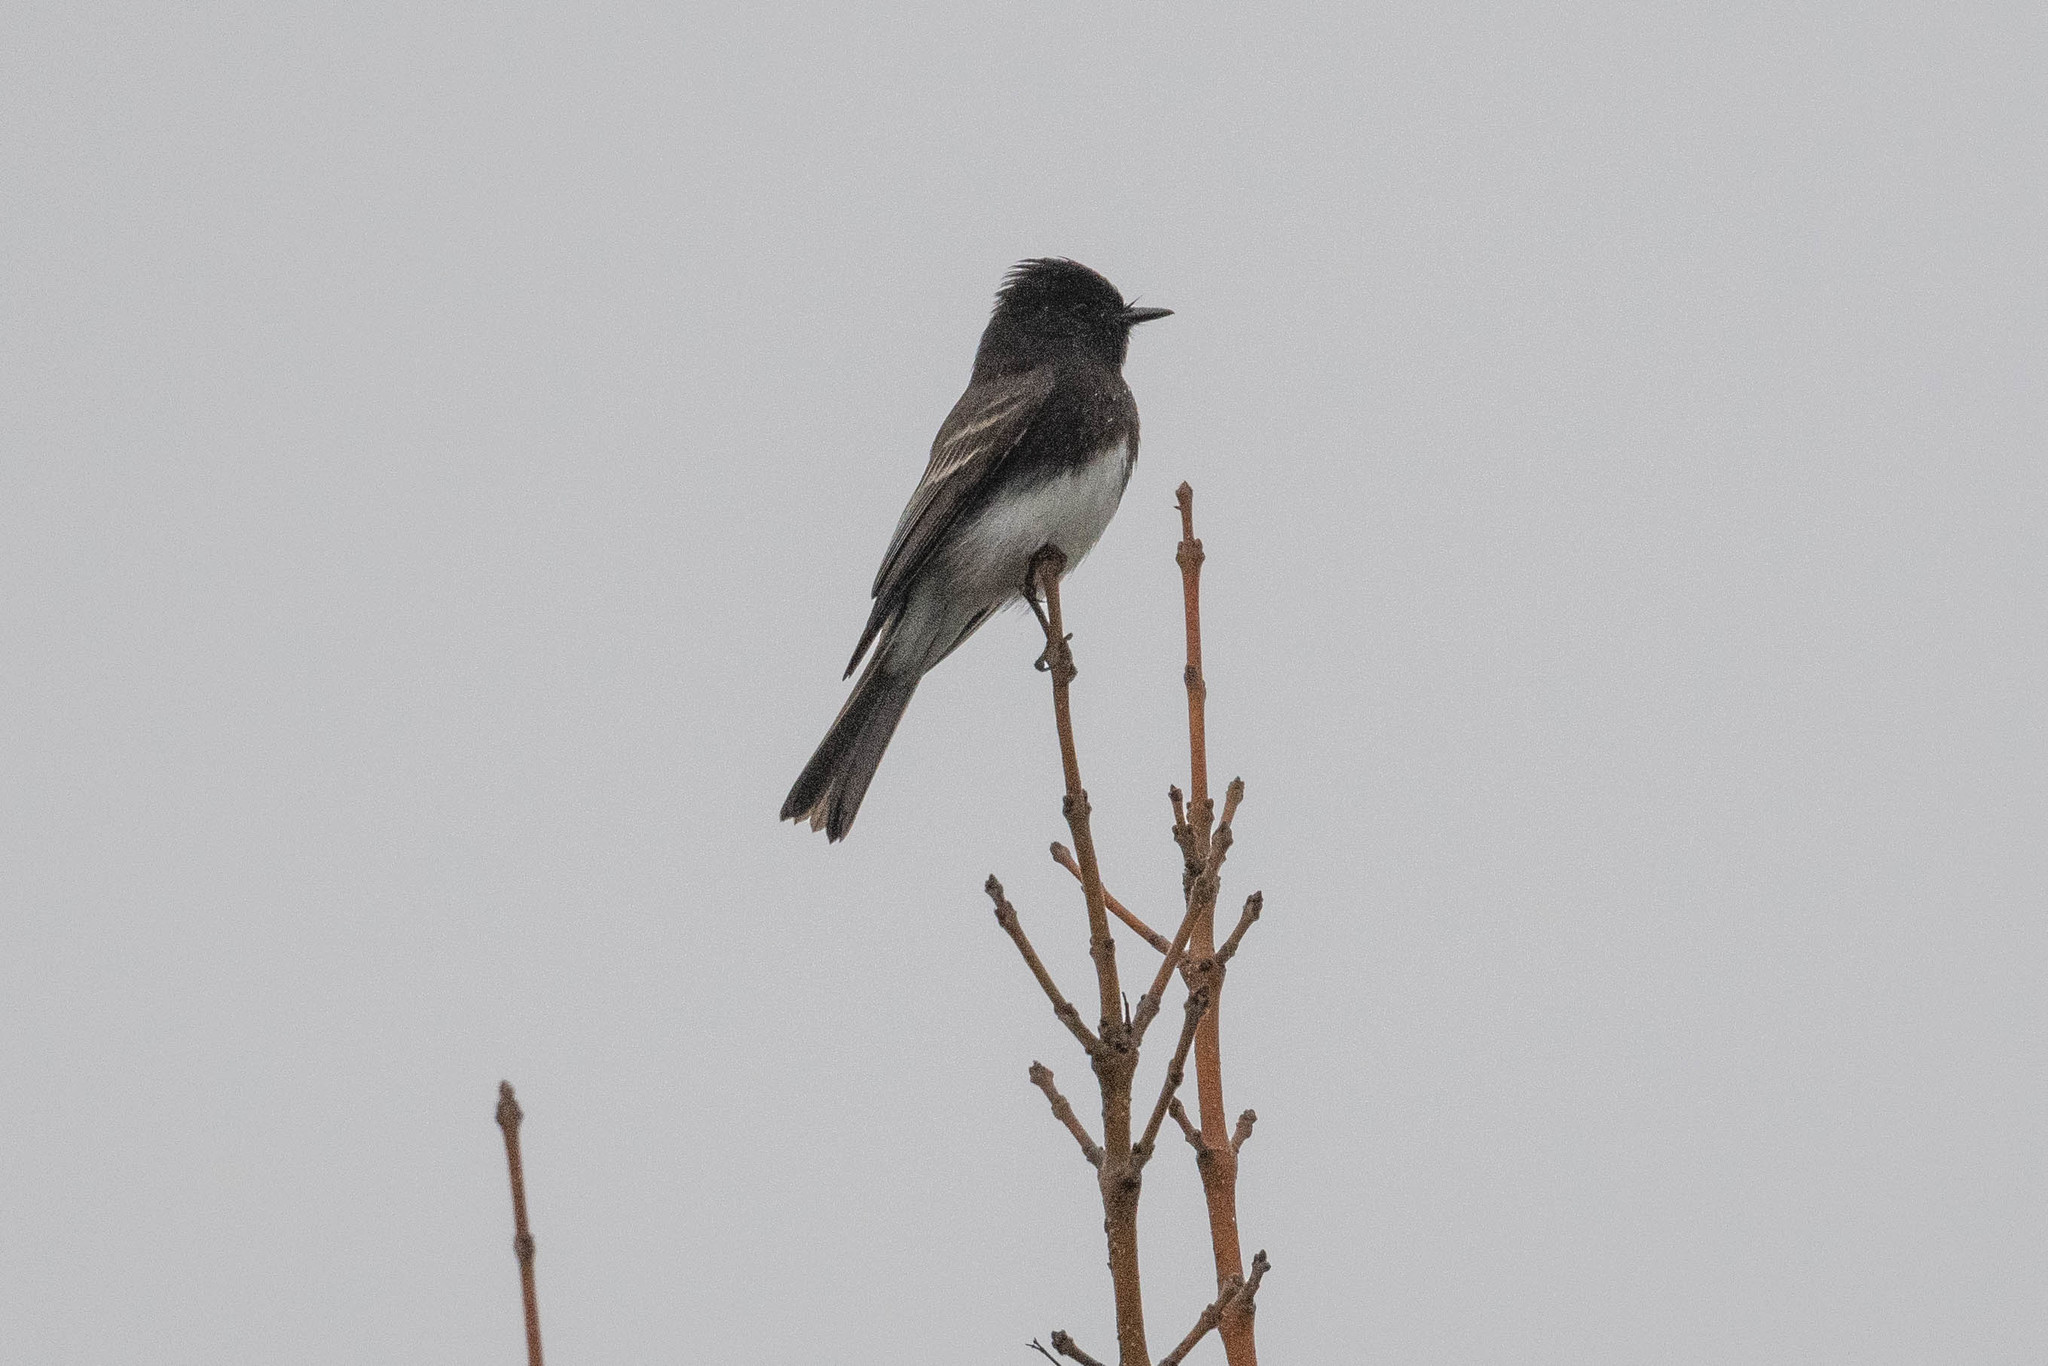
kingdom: Animalia
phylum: Chordata
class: Aves
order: Passeriformes
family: Tyrannidae
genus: Sayornis
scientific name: Sayornis nigricans
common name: Black phoebe
